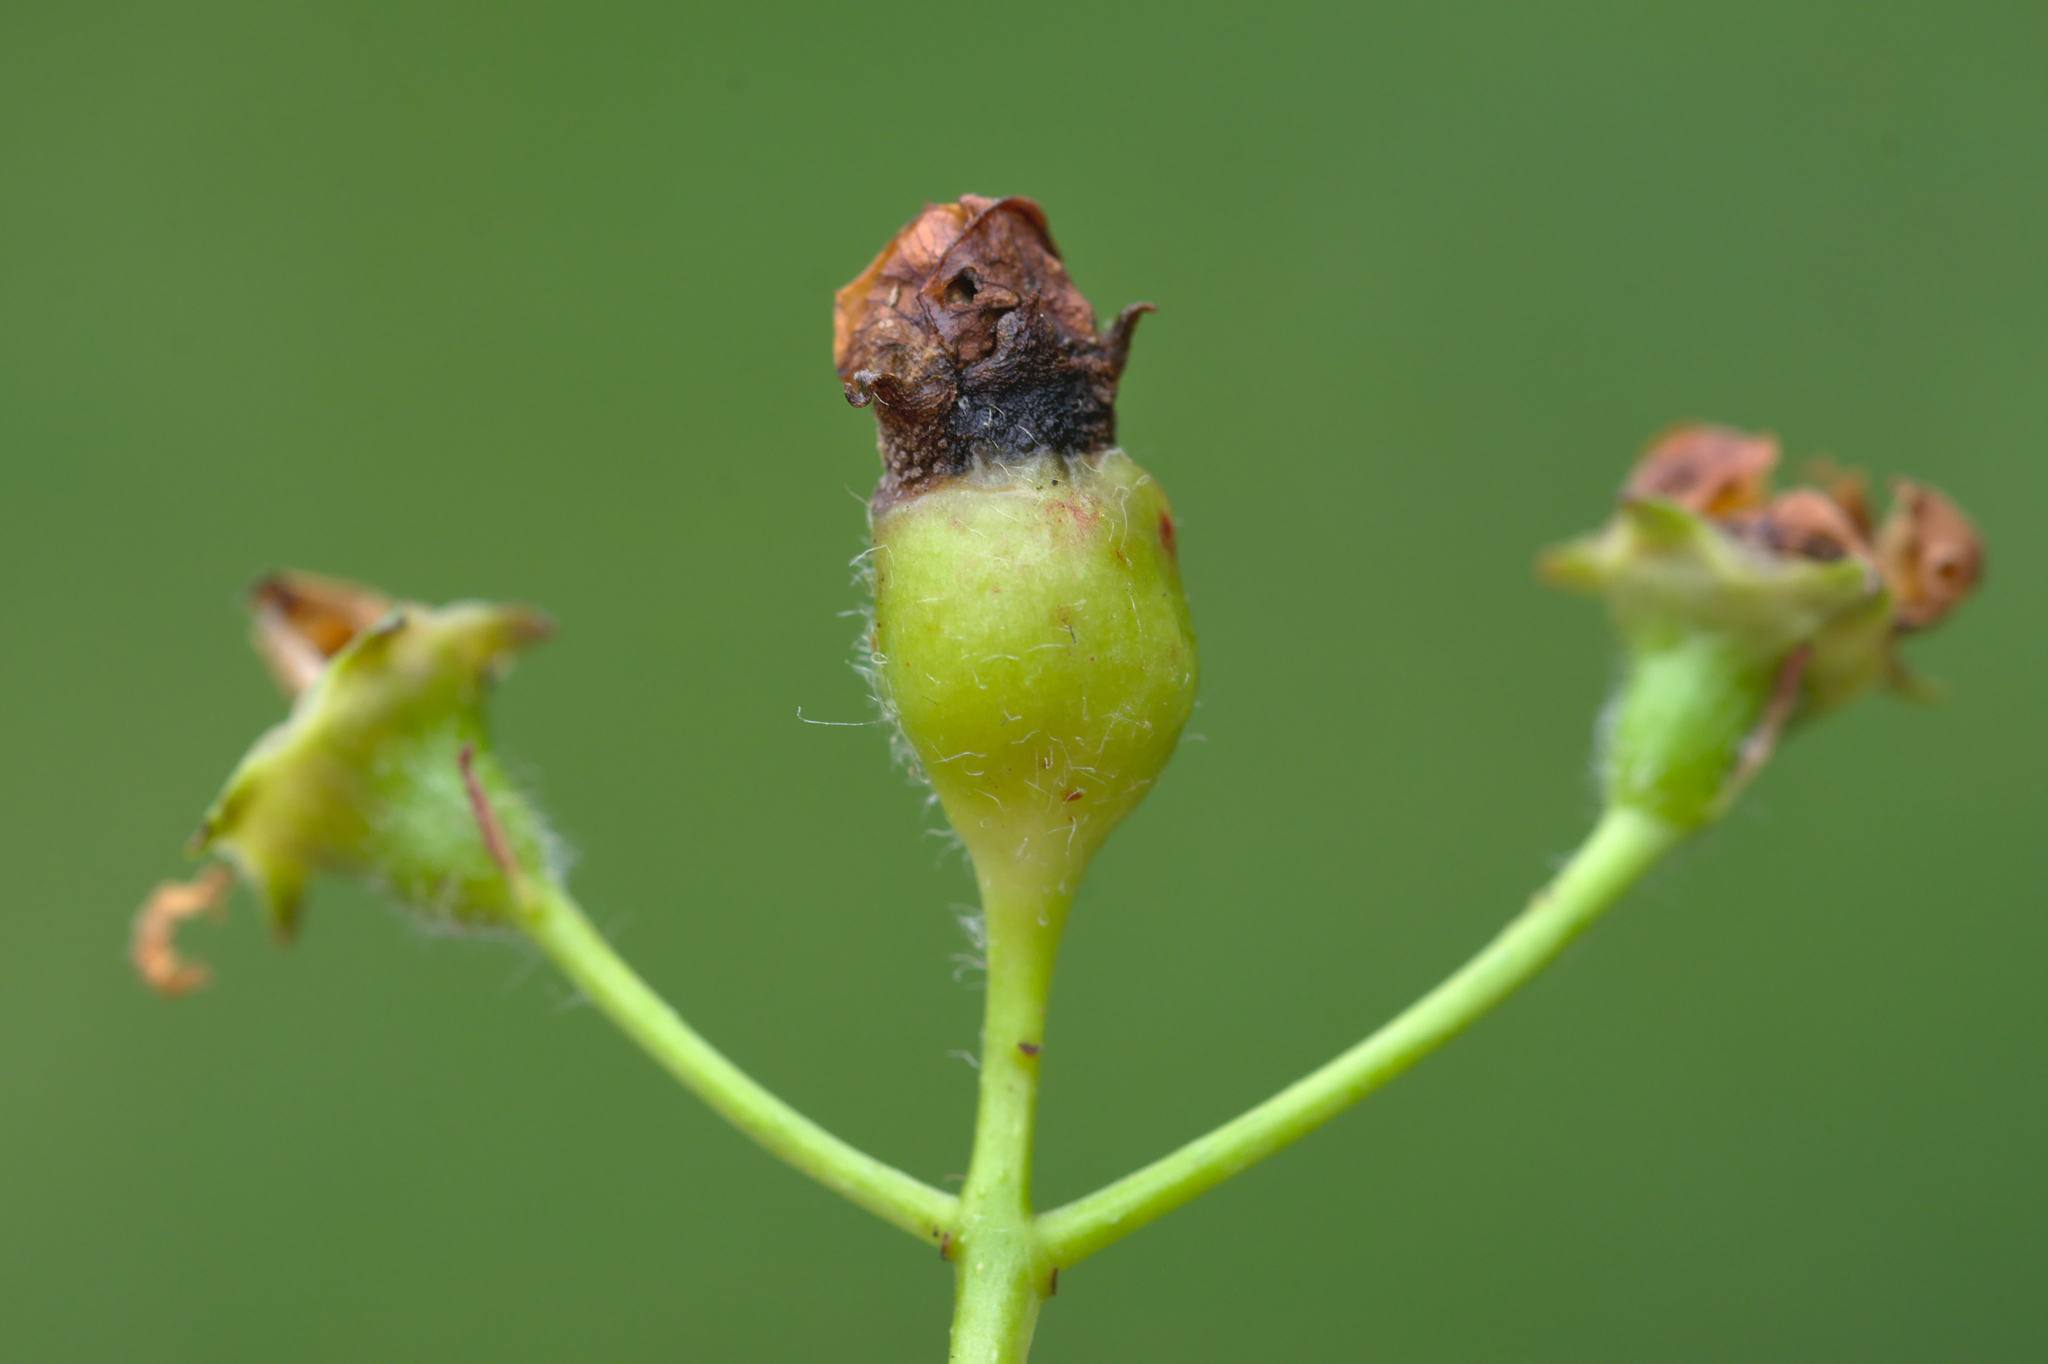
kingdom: Animalia
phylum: Arthropoda
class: Insecta
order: Diptera
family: Cecidomyiidae
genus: Contarinia
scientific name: Contarinia anthobia
